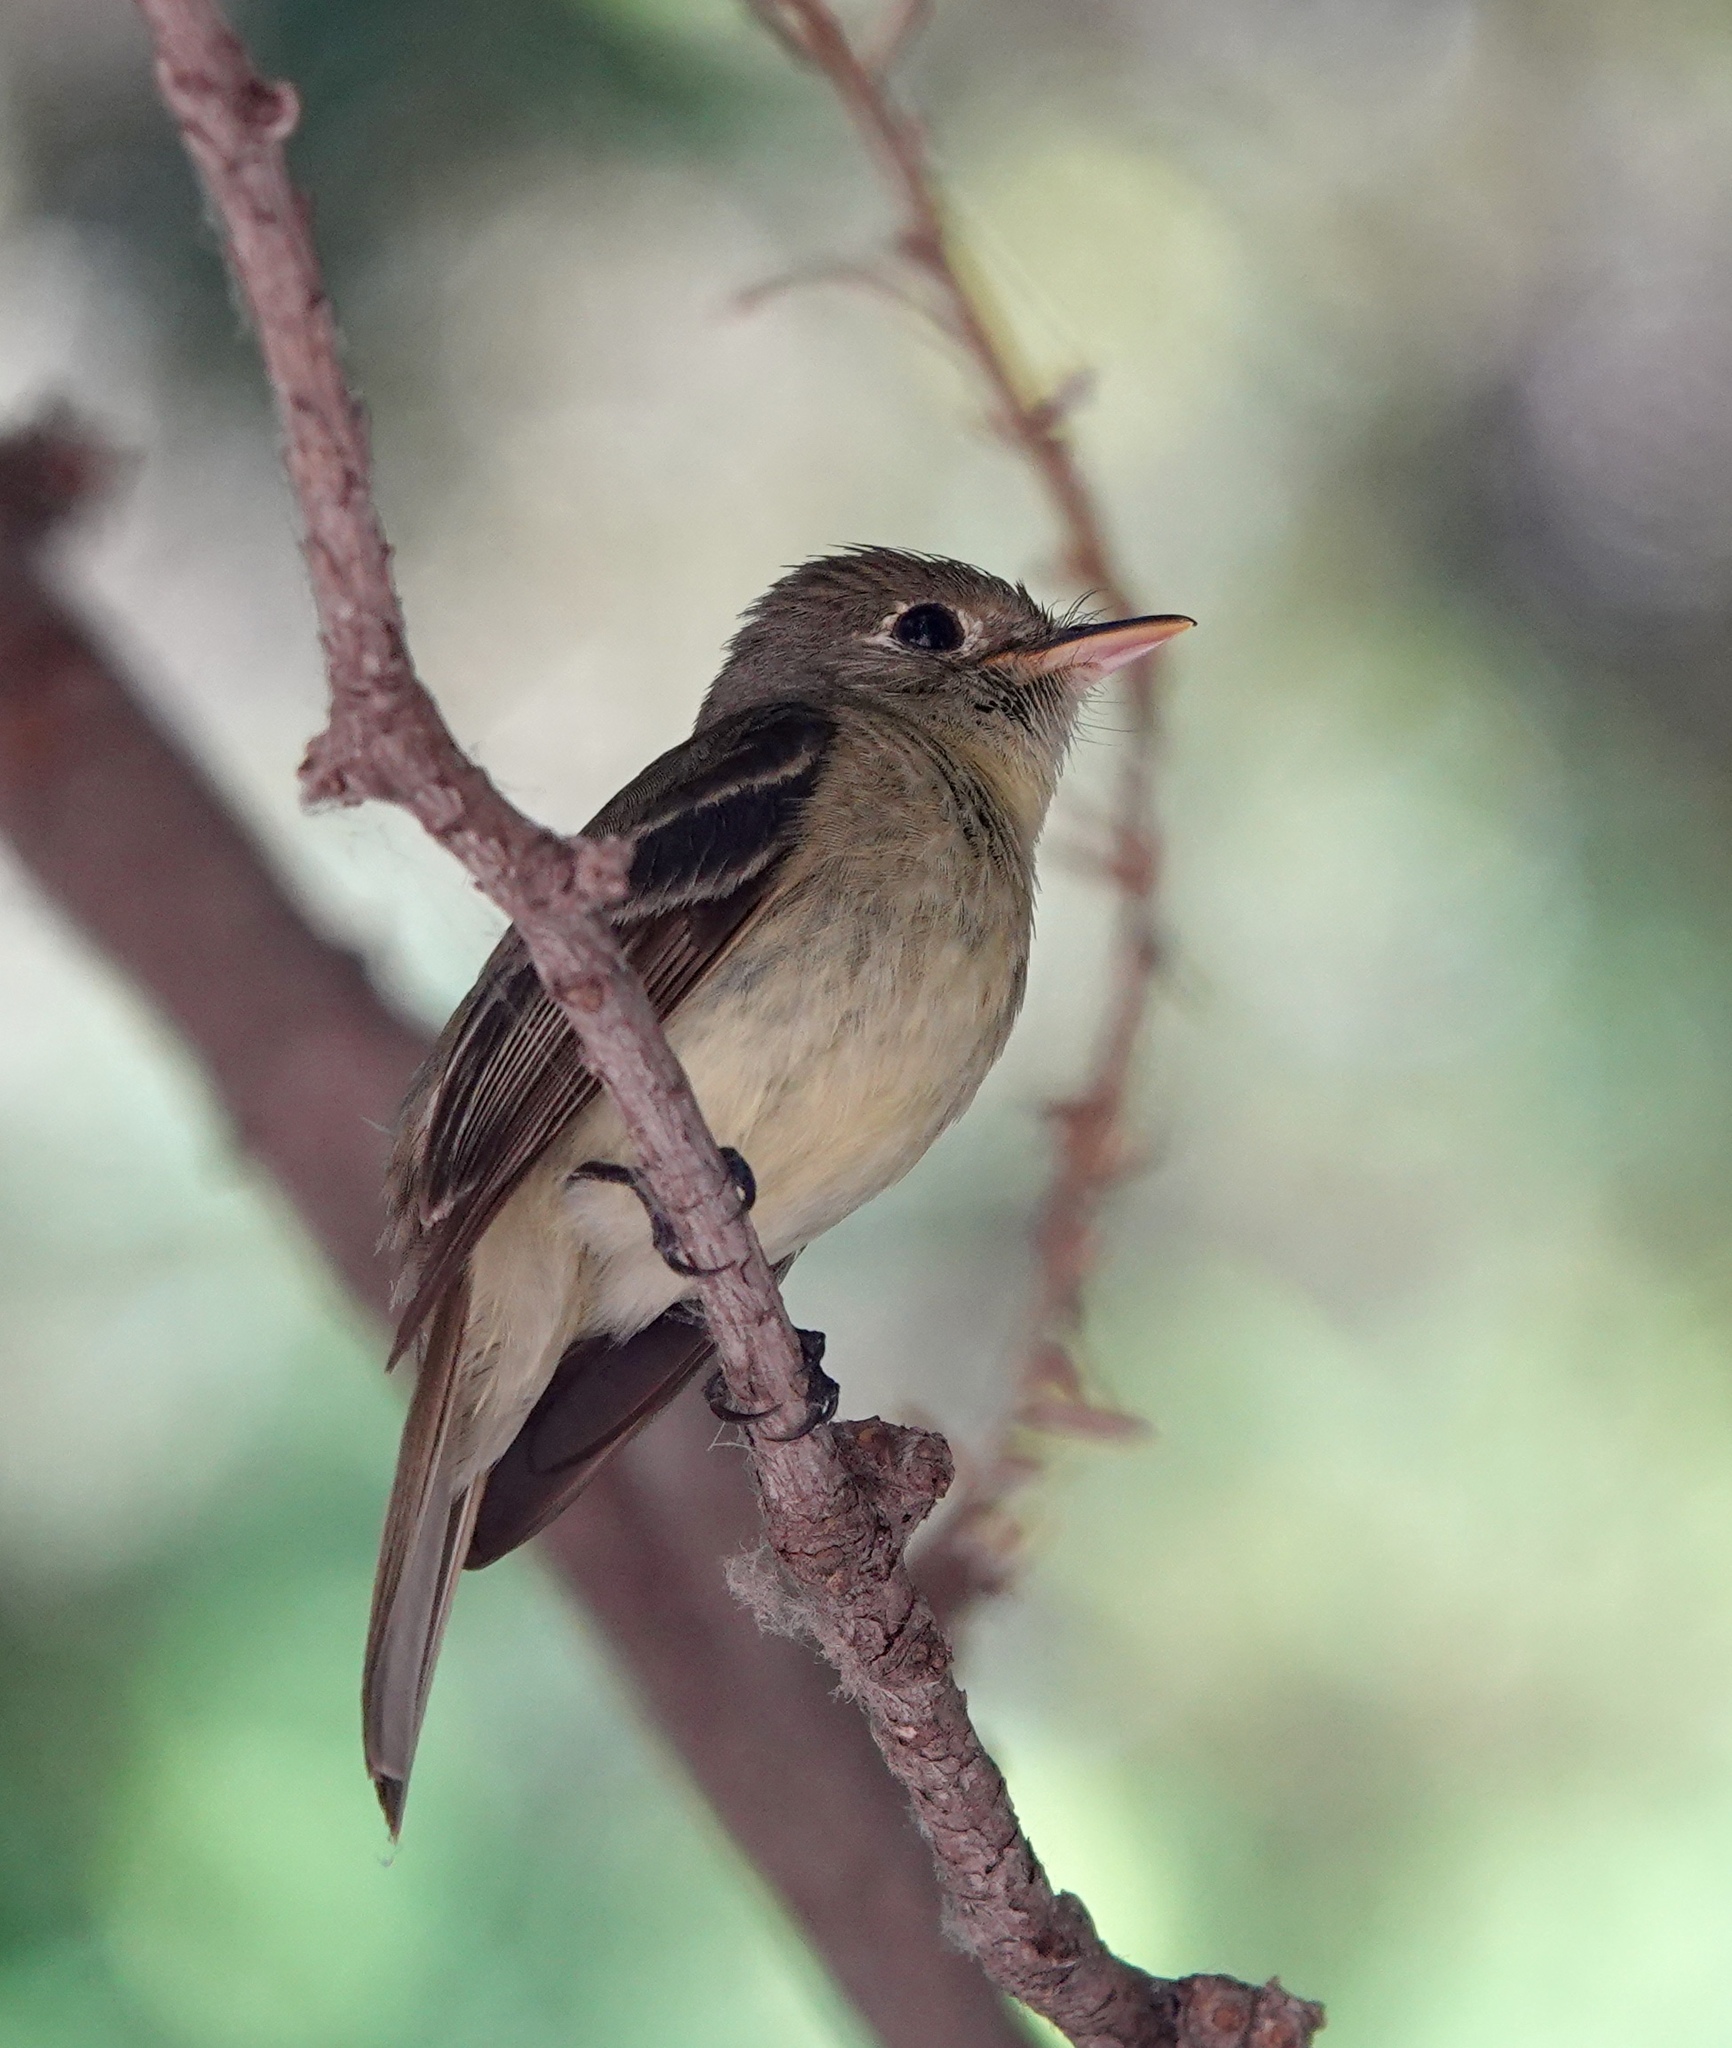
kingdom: Animalia
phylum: Chordata
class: Aves
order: Passeriformes
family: Tyrannidae
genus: Empidonax
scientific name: Empidonax difficilis
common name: Pacific-slope flycatcher
